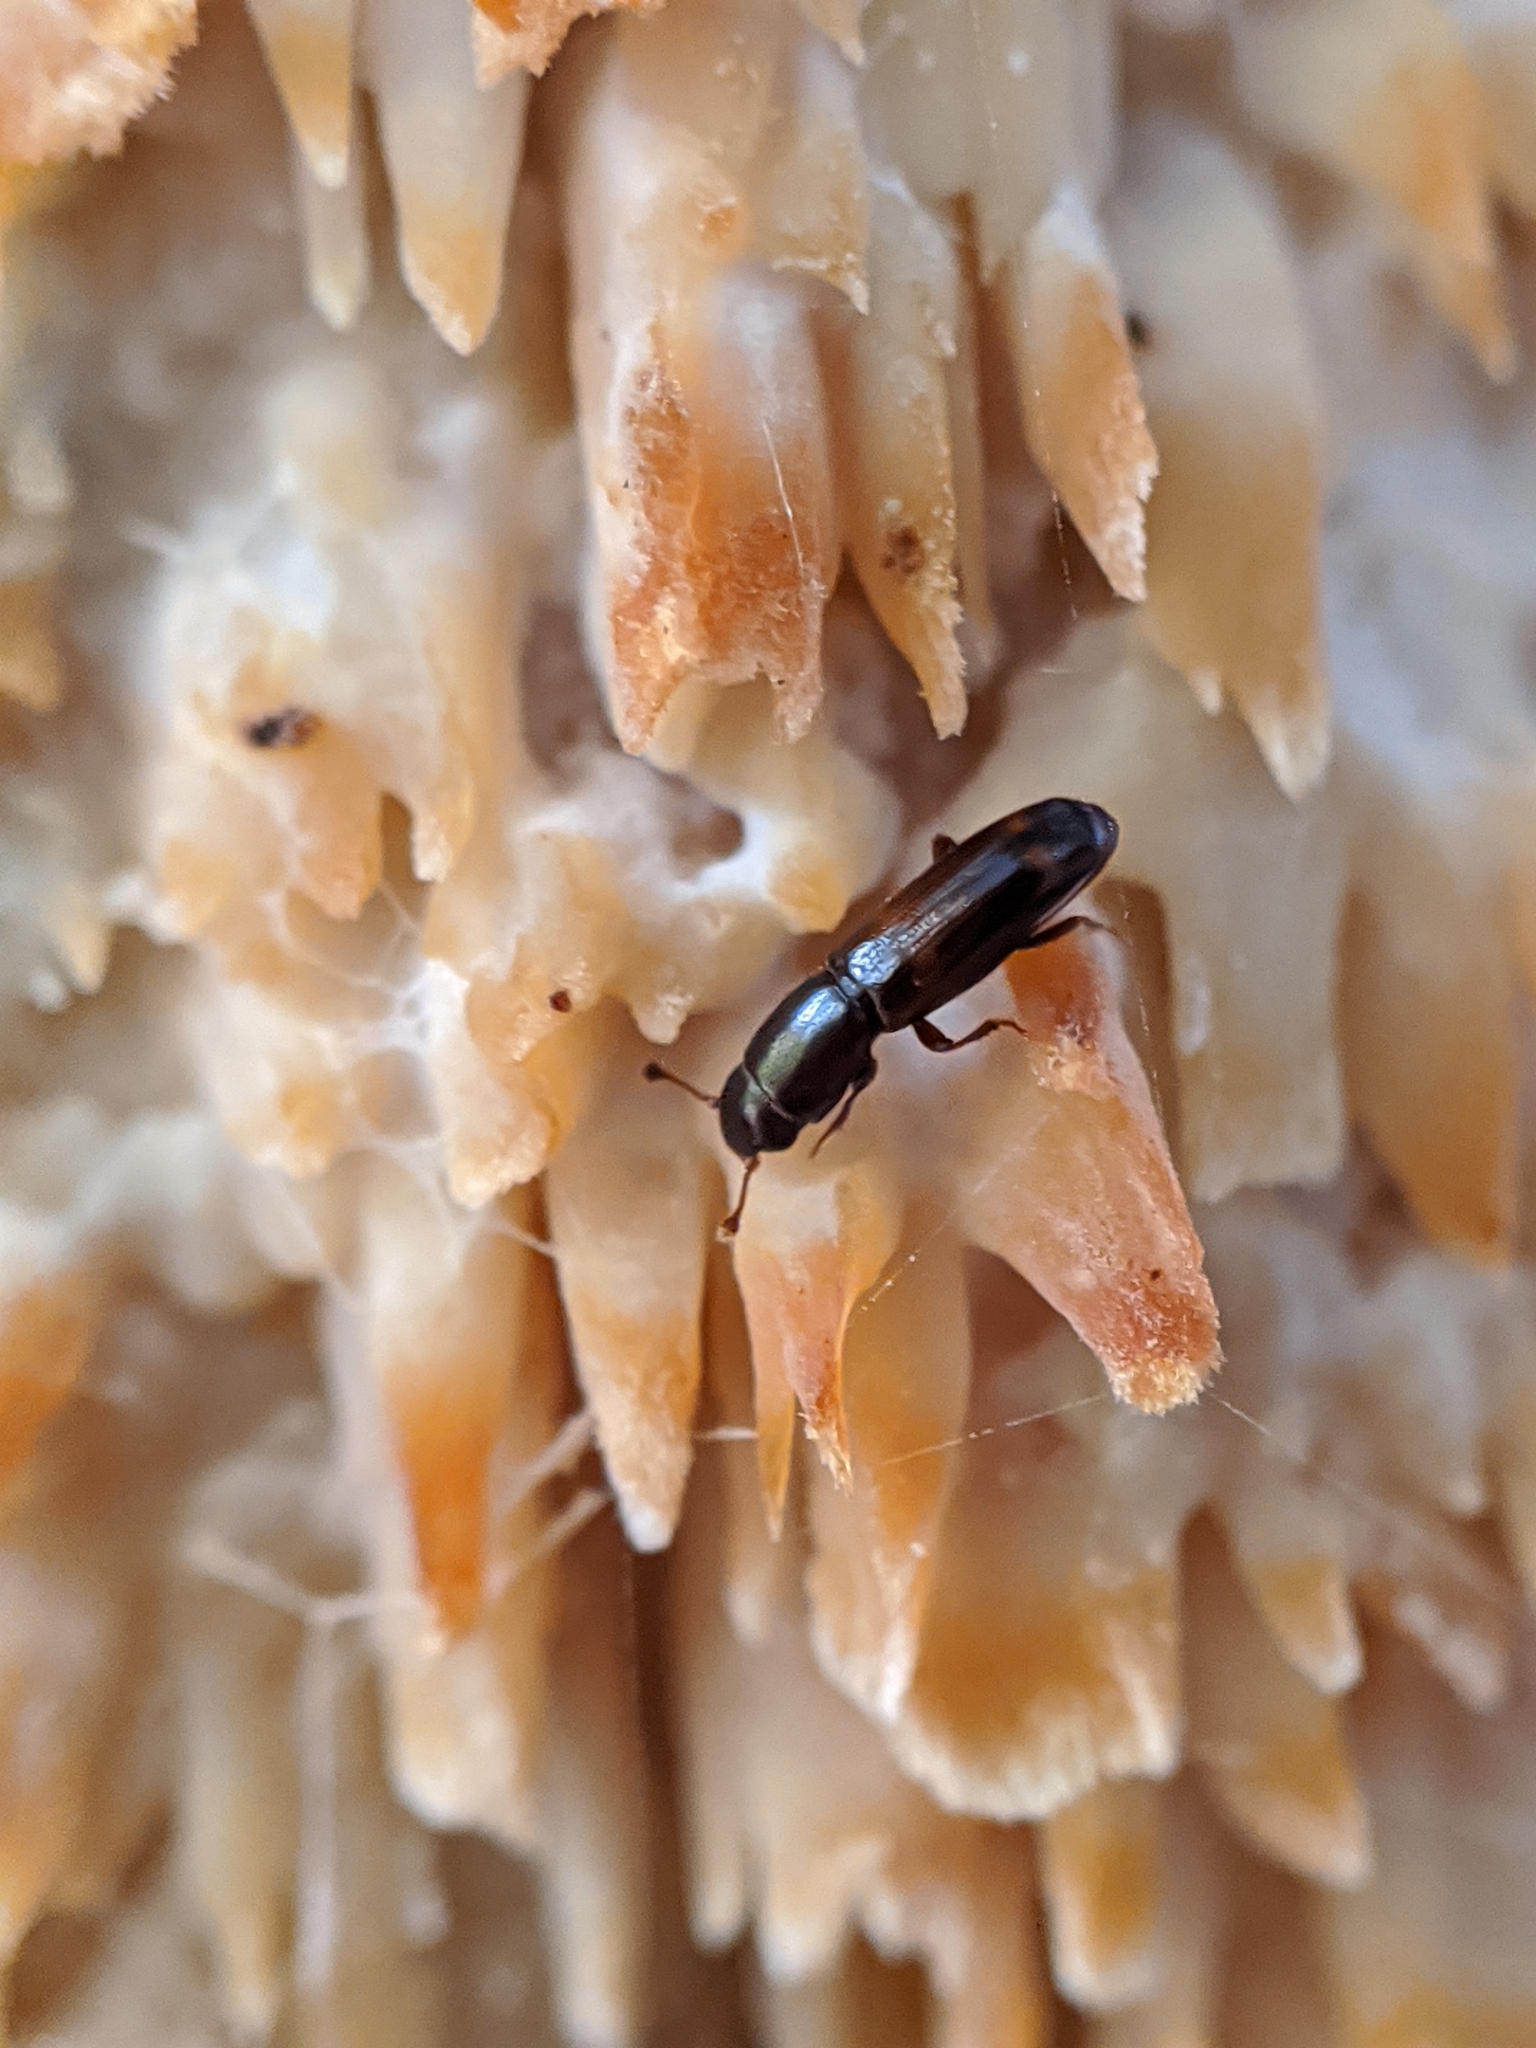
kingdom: Animalia
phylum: Arthropoda
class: Insecta
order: Coleoptera
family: Monotomidae
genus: Rhizophagus
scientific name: Rhizophagus sayi
